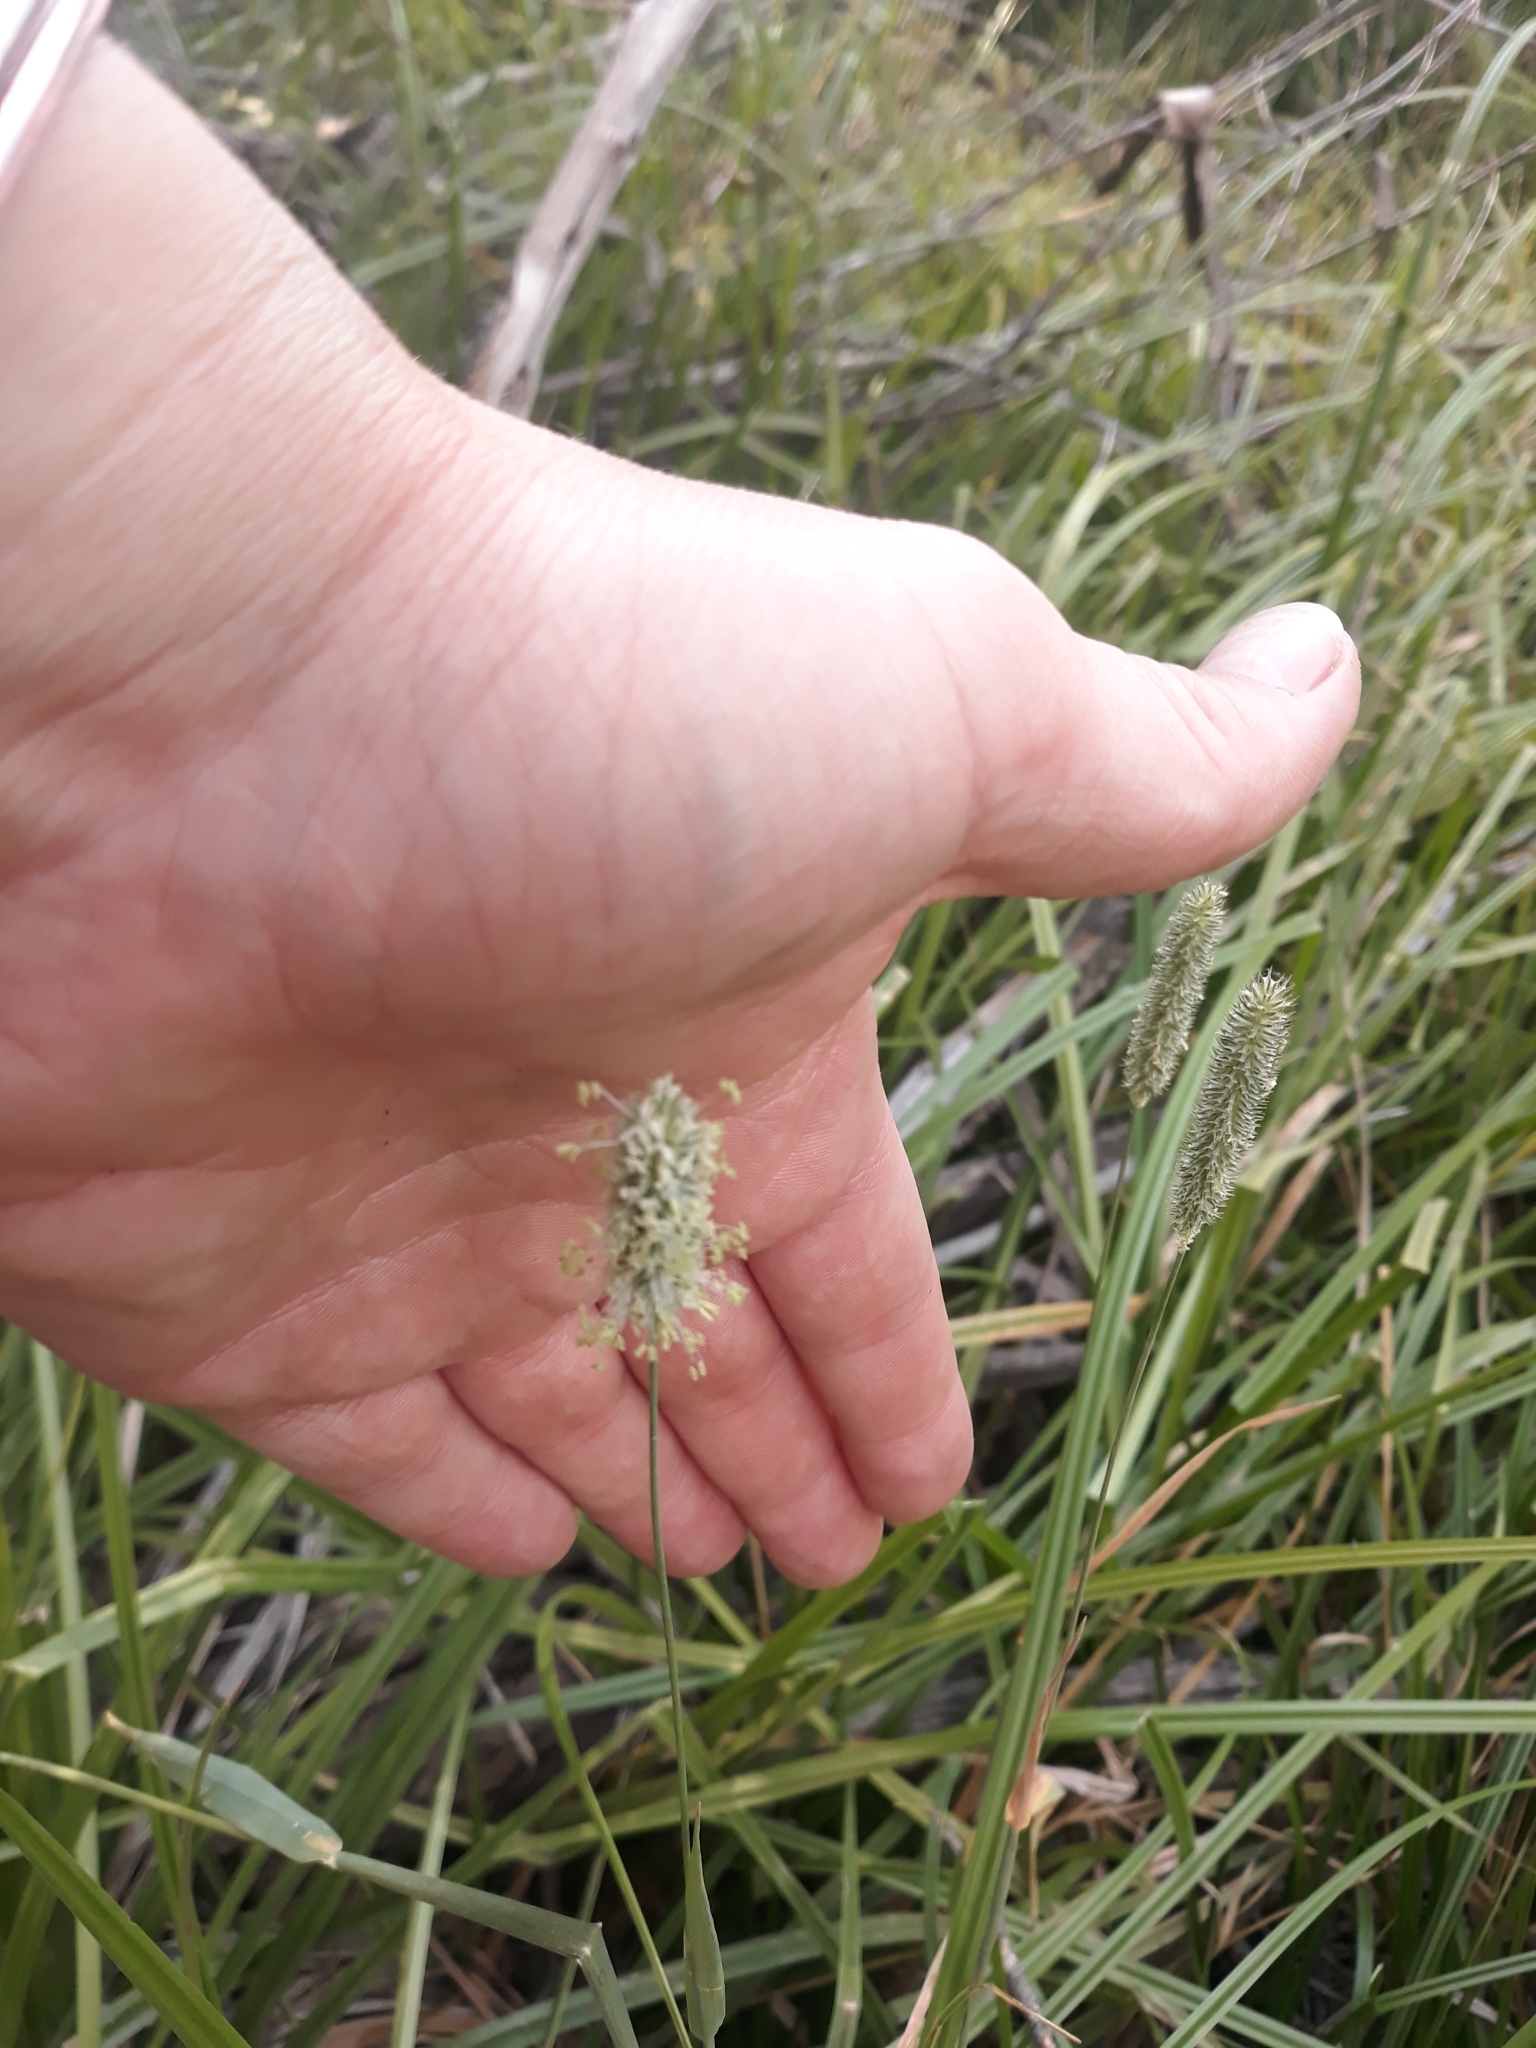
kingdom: Plantae
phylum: Tracheophyta
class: Liliopsida
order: Poales
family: Poaceae
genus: Phleum
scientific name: Phleum pratense
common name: Timothy grass
